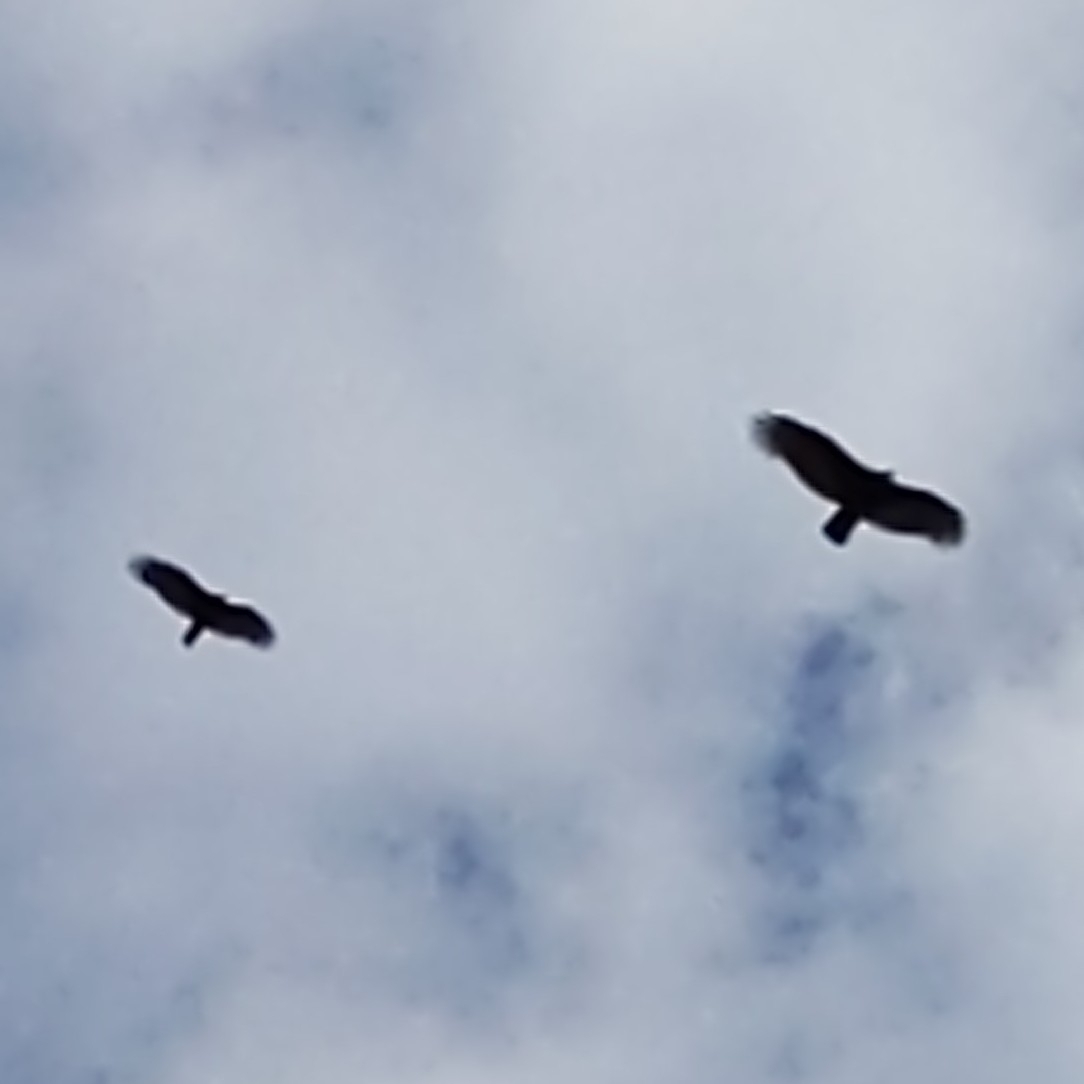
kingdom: Animalia
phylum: Chordata
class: Aves
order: Accipitriformes
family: Cathartidae
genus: Cathartes
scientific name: Cathartes aura
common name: Turkey vulture
